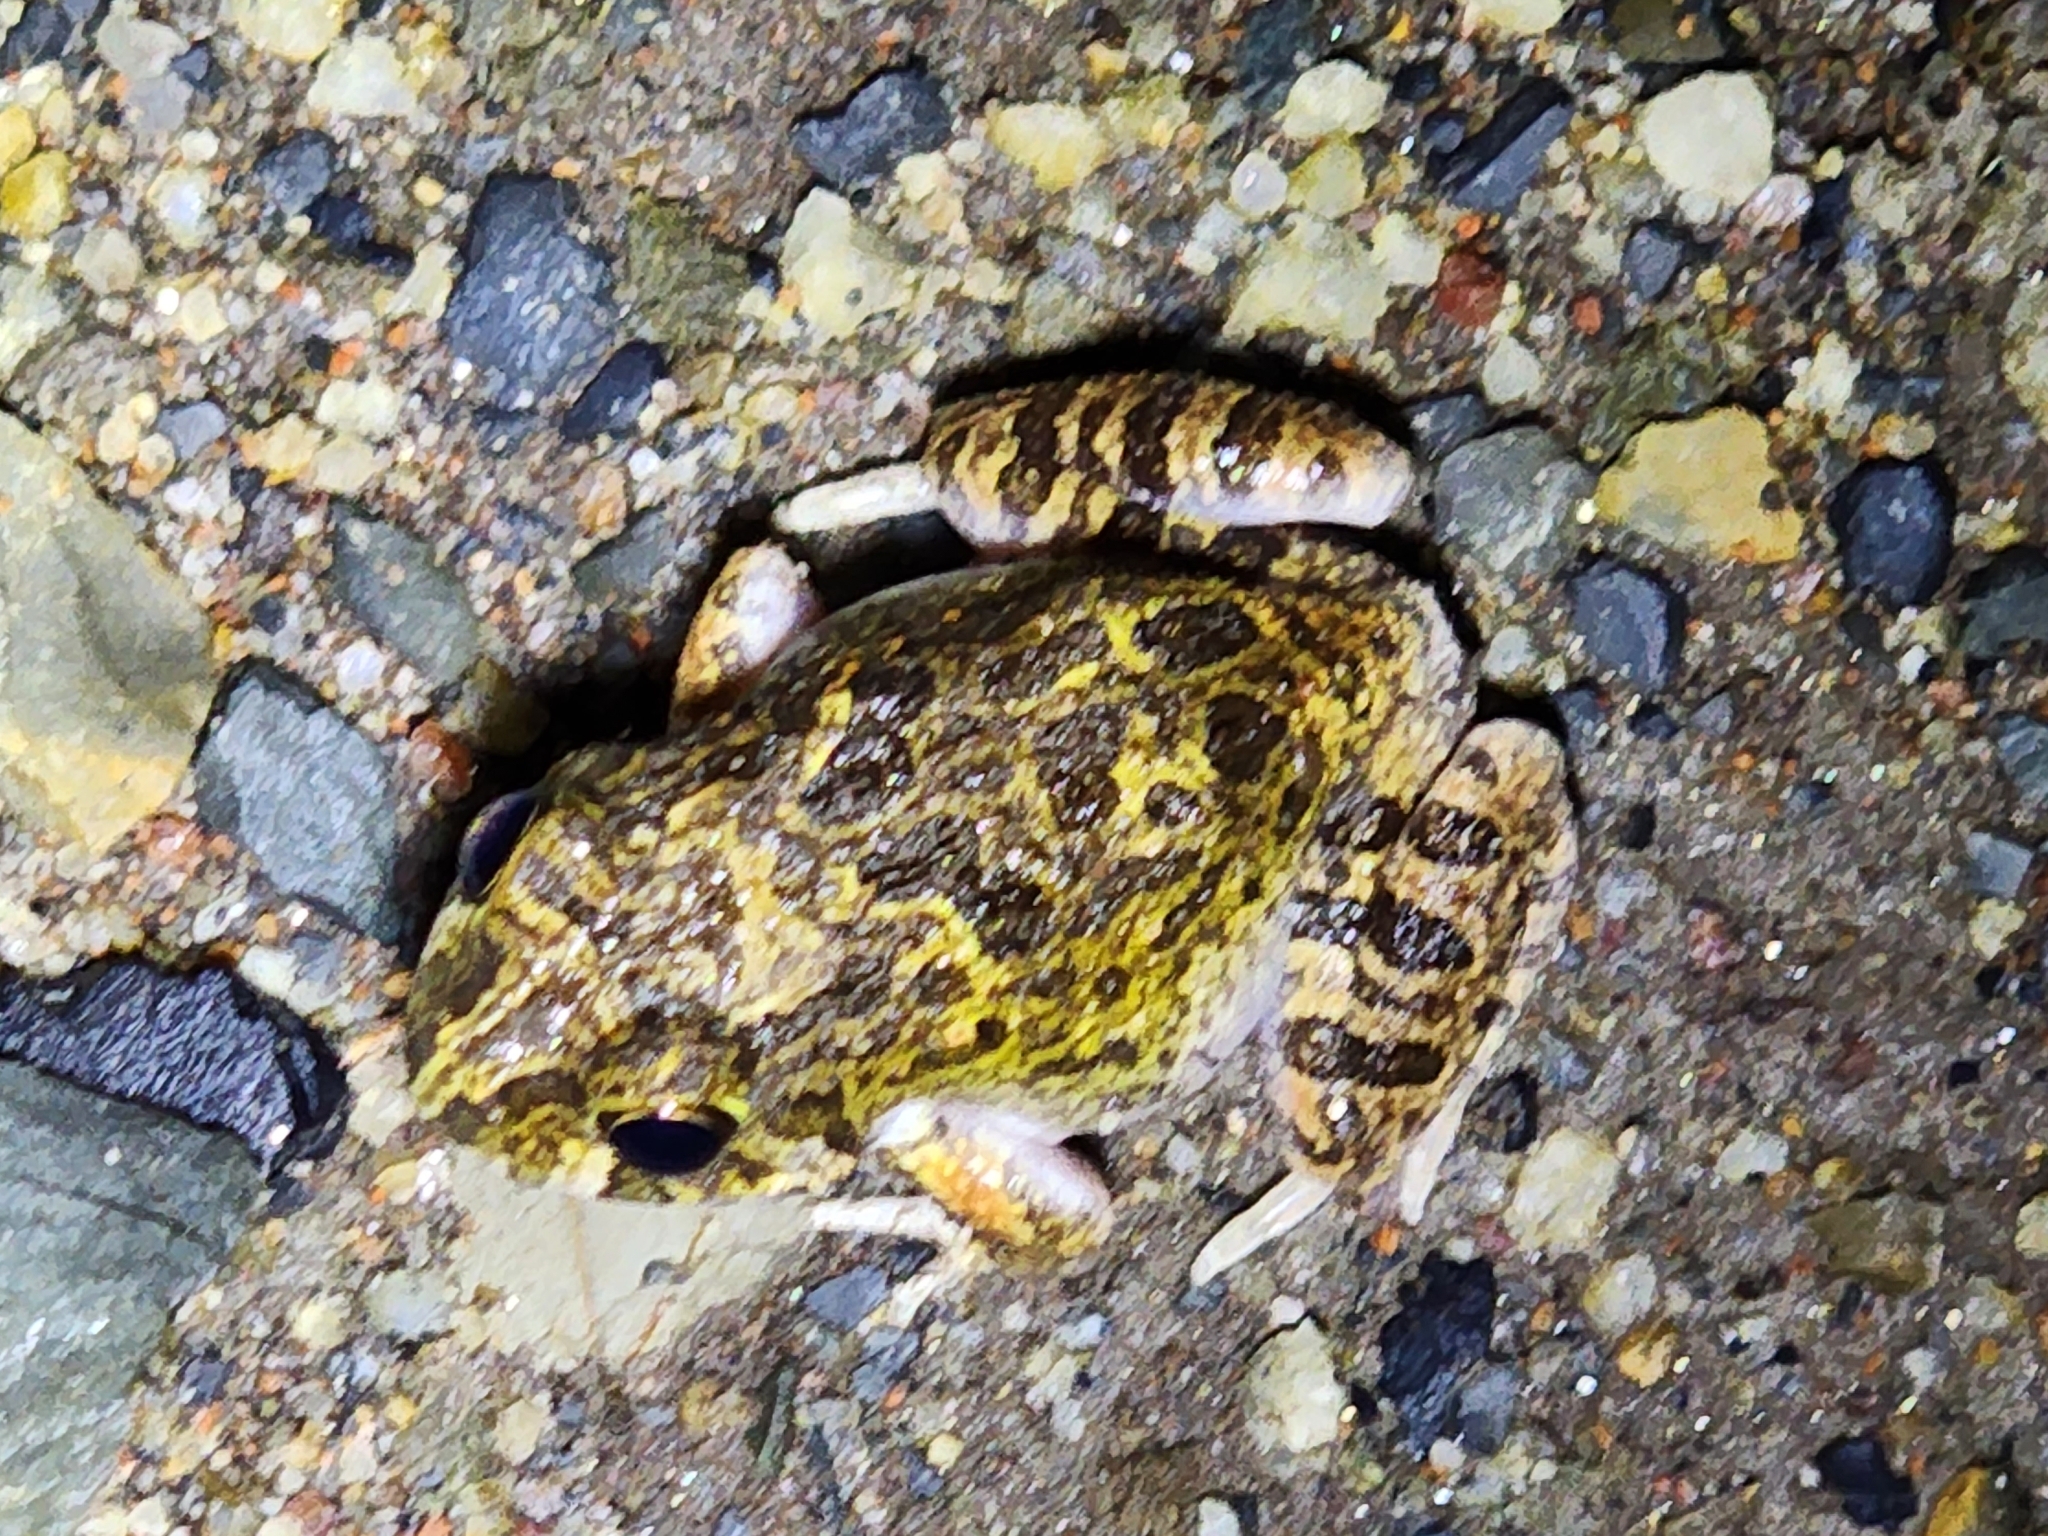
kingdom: Animalia
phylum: Chordata
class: Amphibia
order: Anura
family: Limnodynastidae
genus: Platyplectrum
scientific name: Platyplectrum ornatum
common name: Ornate burrowing frog
